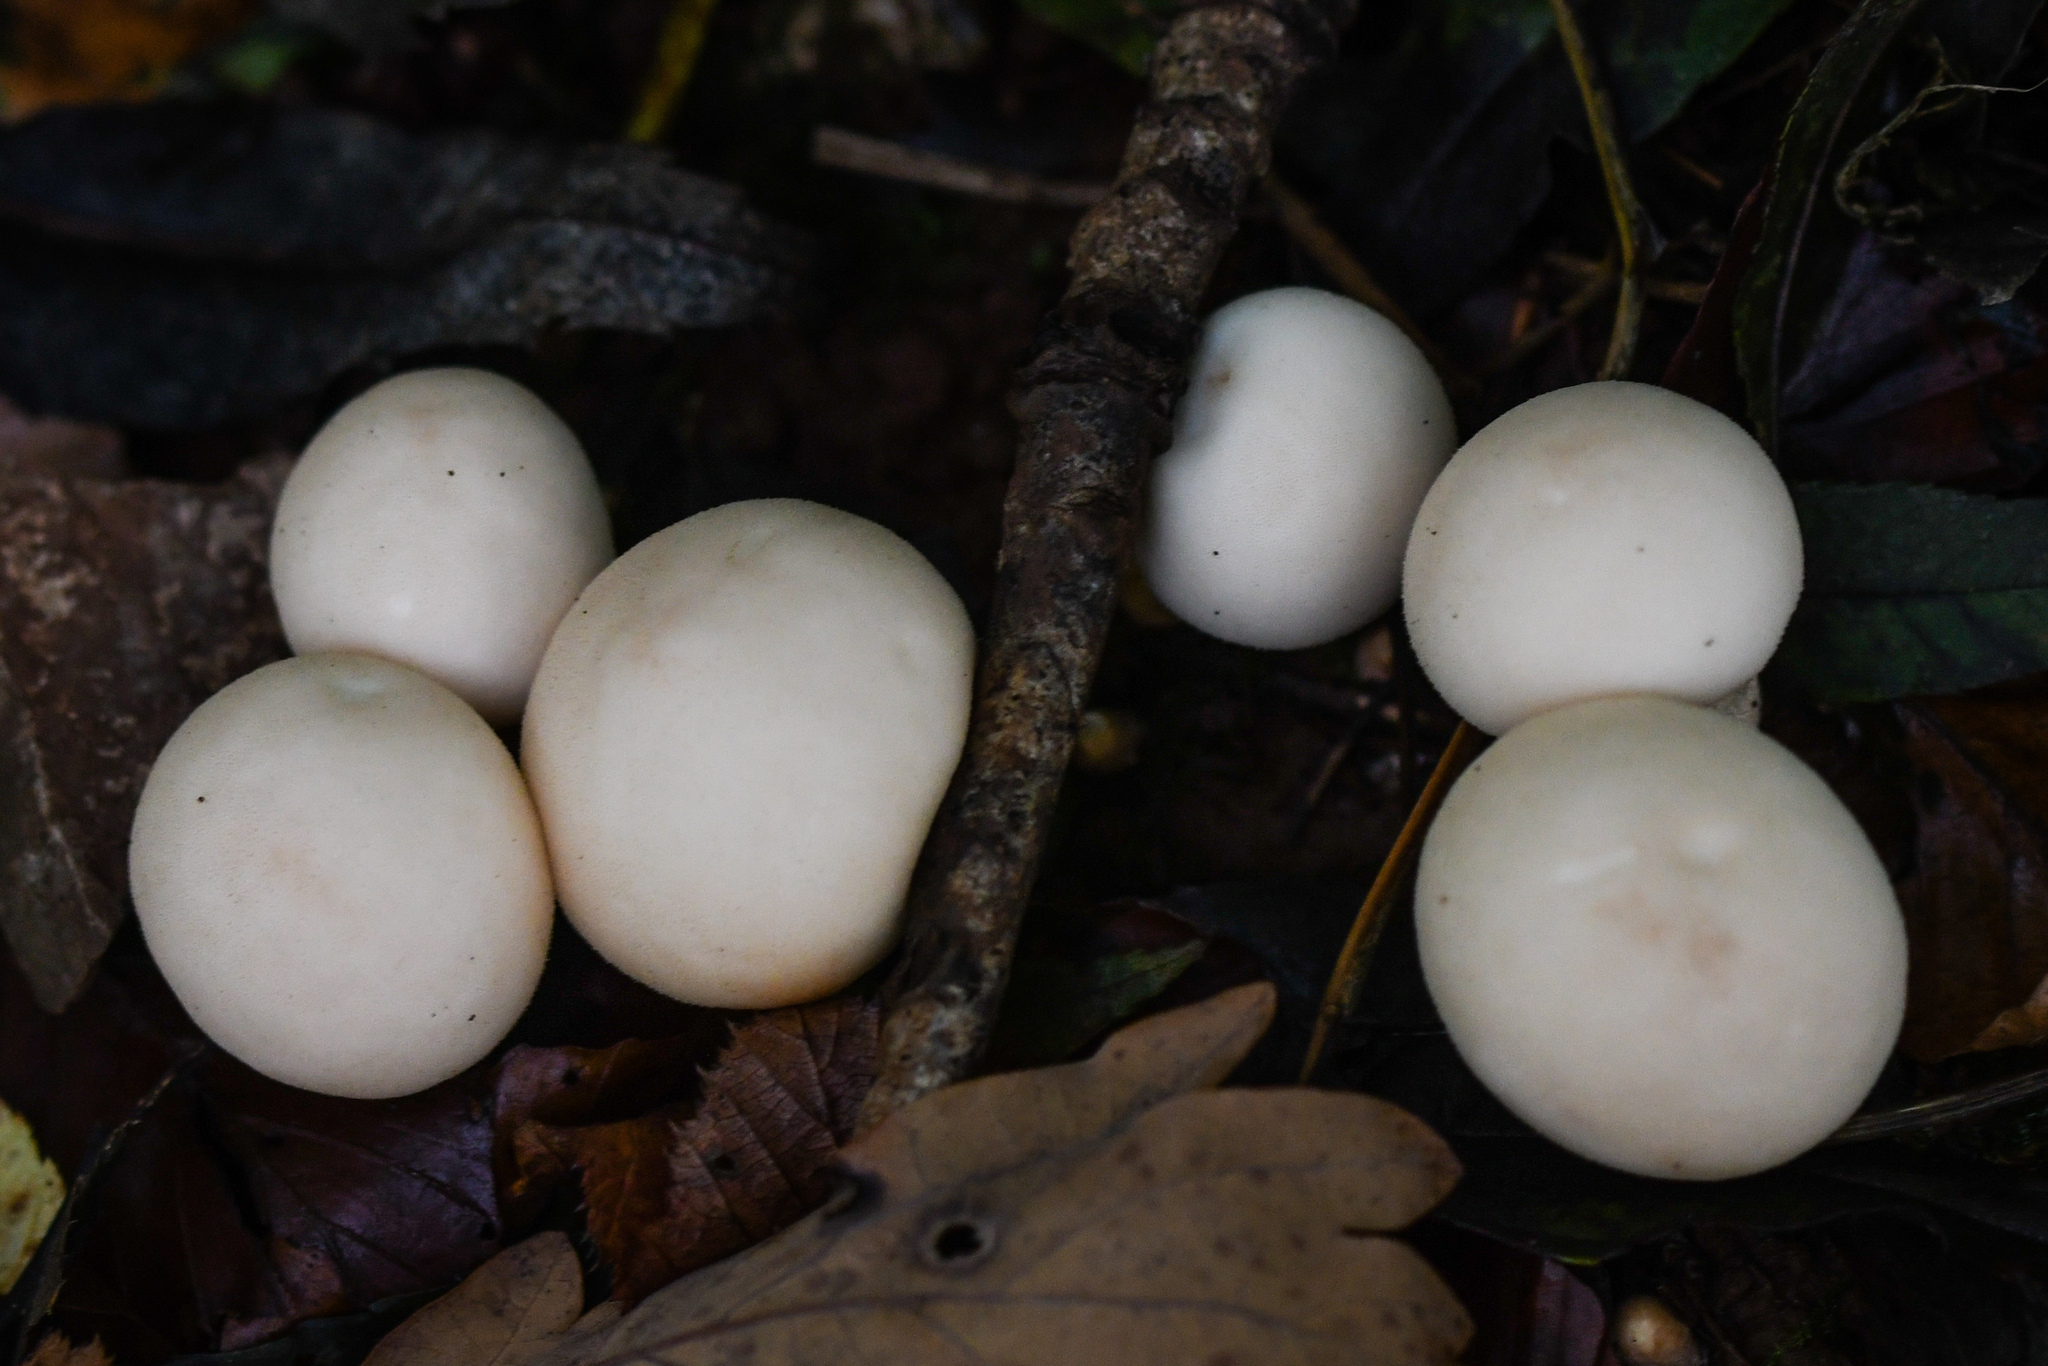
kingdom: Fungi
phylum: Basidiomycota
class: Agaricomycetes
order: Agaricales
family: Lycoperdaceae
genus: Apioperdon
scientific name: Apioperdon pyriforme
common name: Pear-shaped puffball
